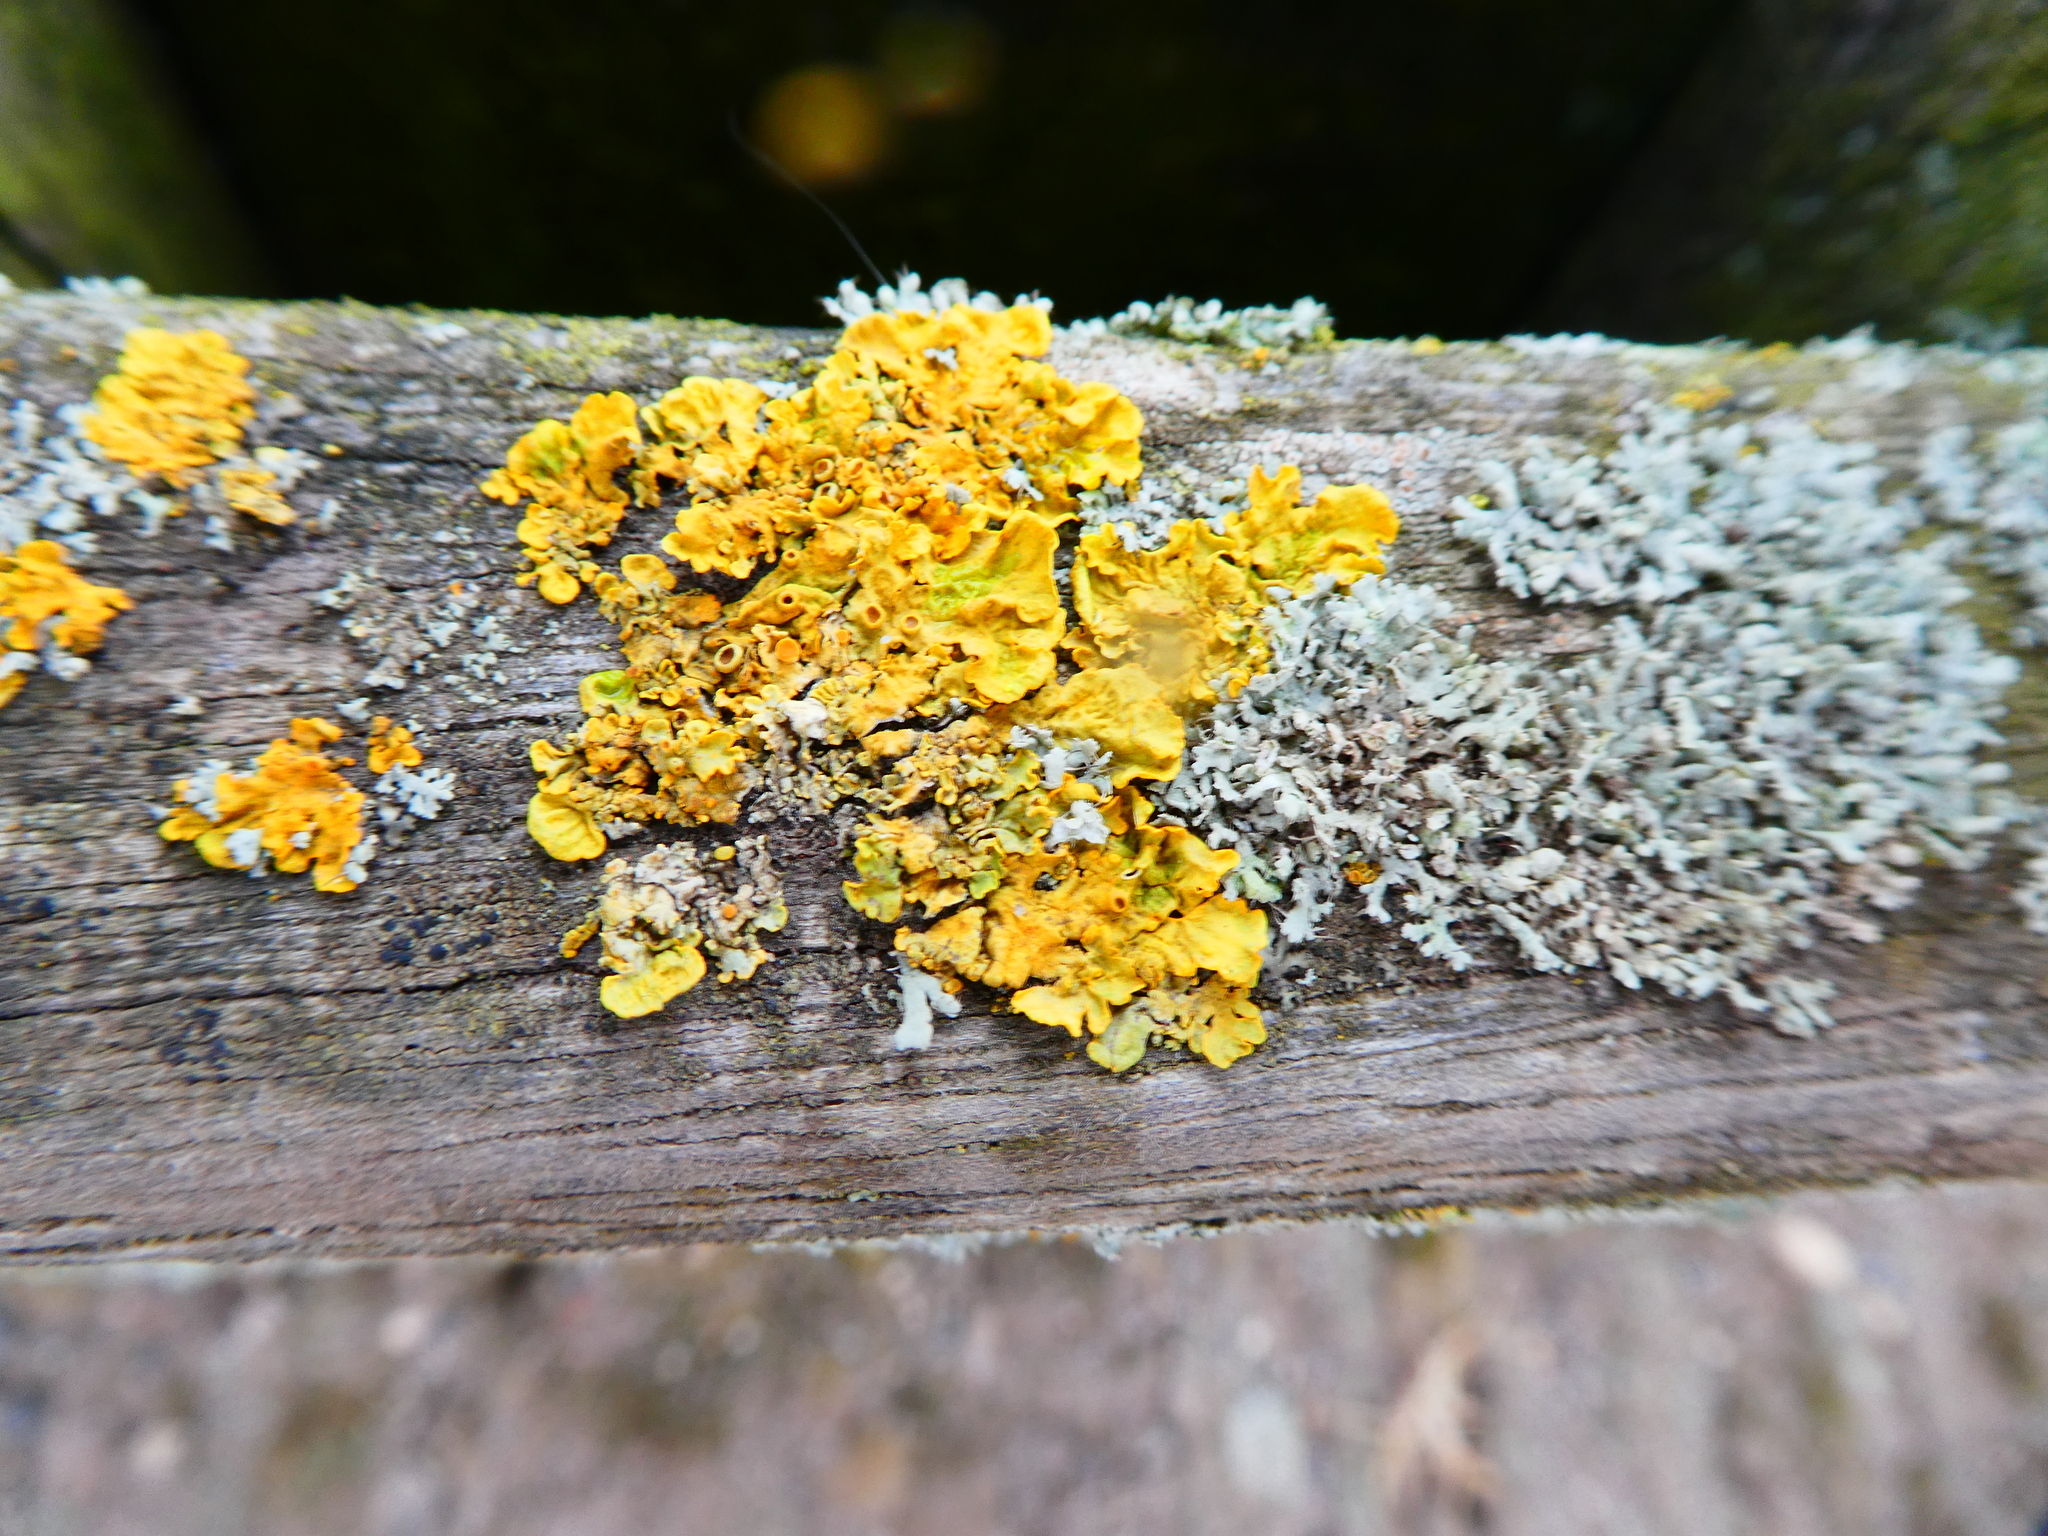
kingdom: Fungi
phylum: Ascomycota
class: Lecanoromycetes
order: Teloschistales
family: Teloschistaceae
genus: Xanthoria
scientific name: Xanthoria parietina
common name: Common orange lichen
